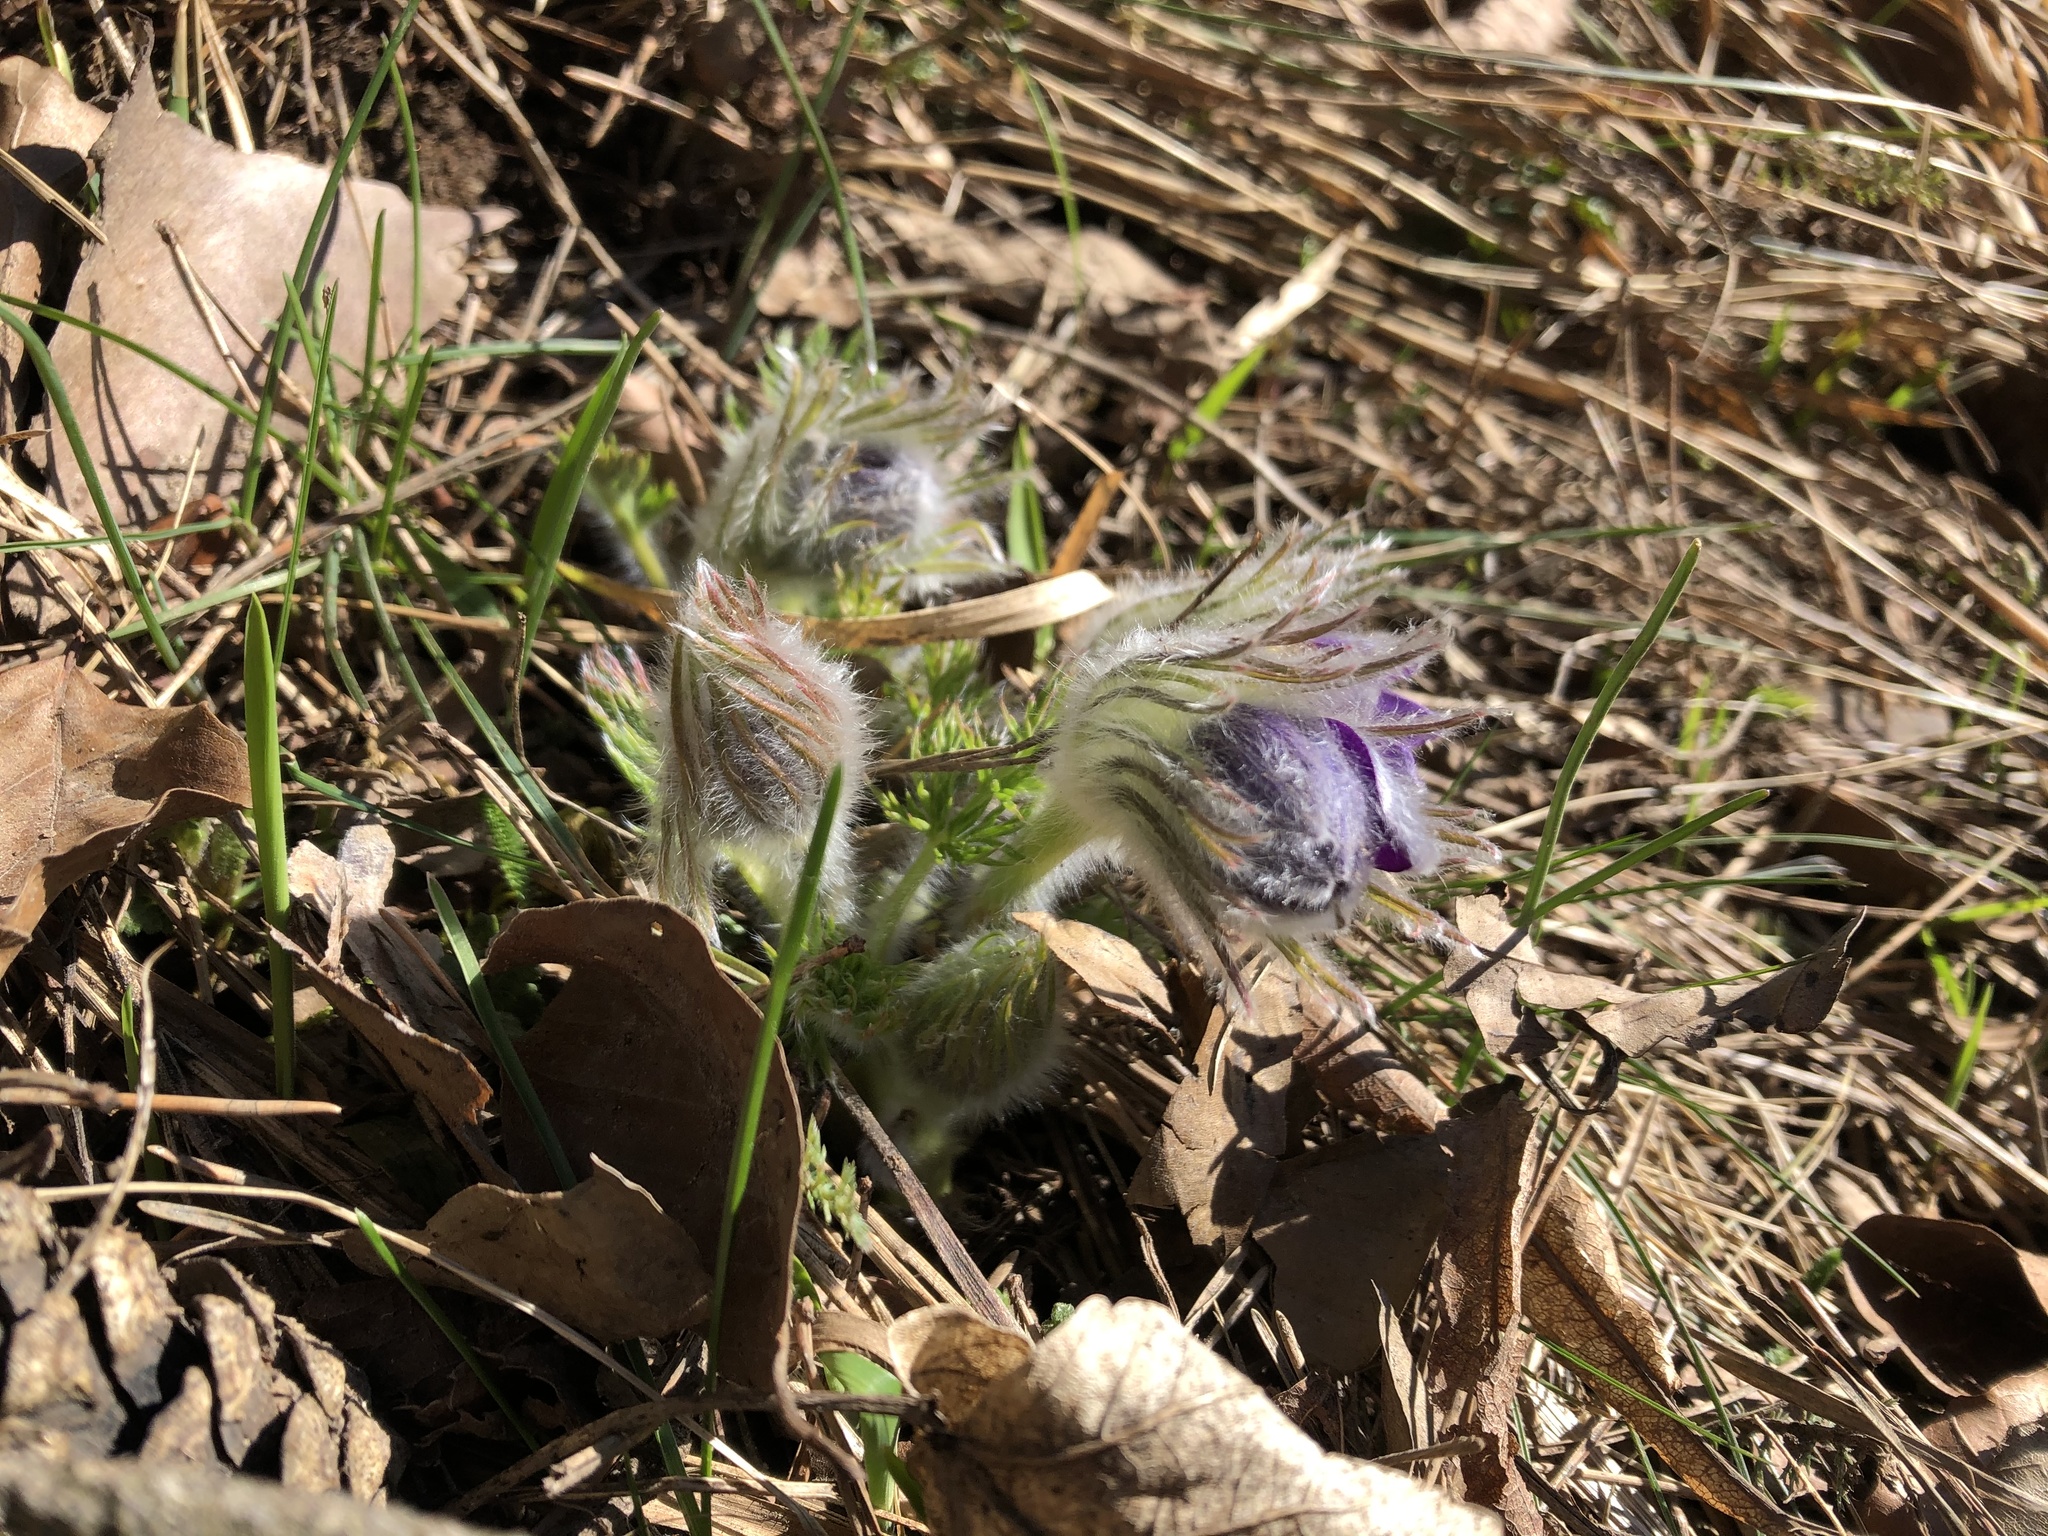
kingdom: Plantae
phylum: Tracheophyta
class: Magnoliopsida
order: Ranunculales
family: Ranunculaceae
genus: Pulsatilla
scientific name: Pulsatilla vulgaris
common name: Pasqueflower
